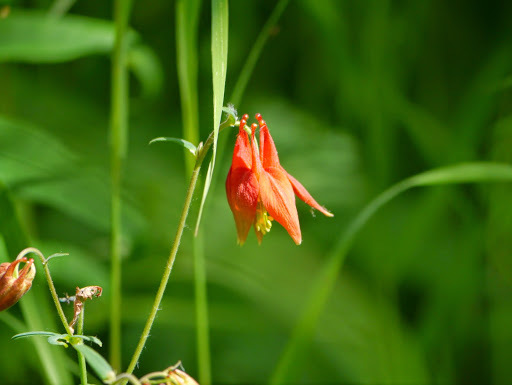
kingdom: Plantae
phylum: Tracheophyta
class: Magnoliopsida
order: Ranunculales
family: Ranunculaceae
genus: Aquilegia
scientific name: Aquilegia formosa
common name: Sitka columbine
